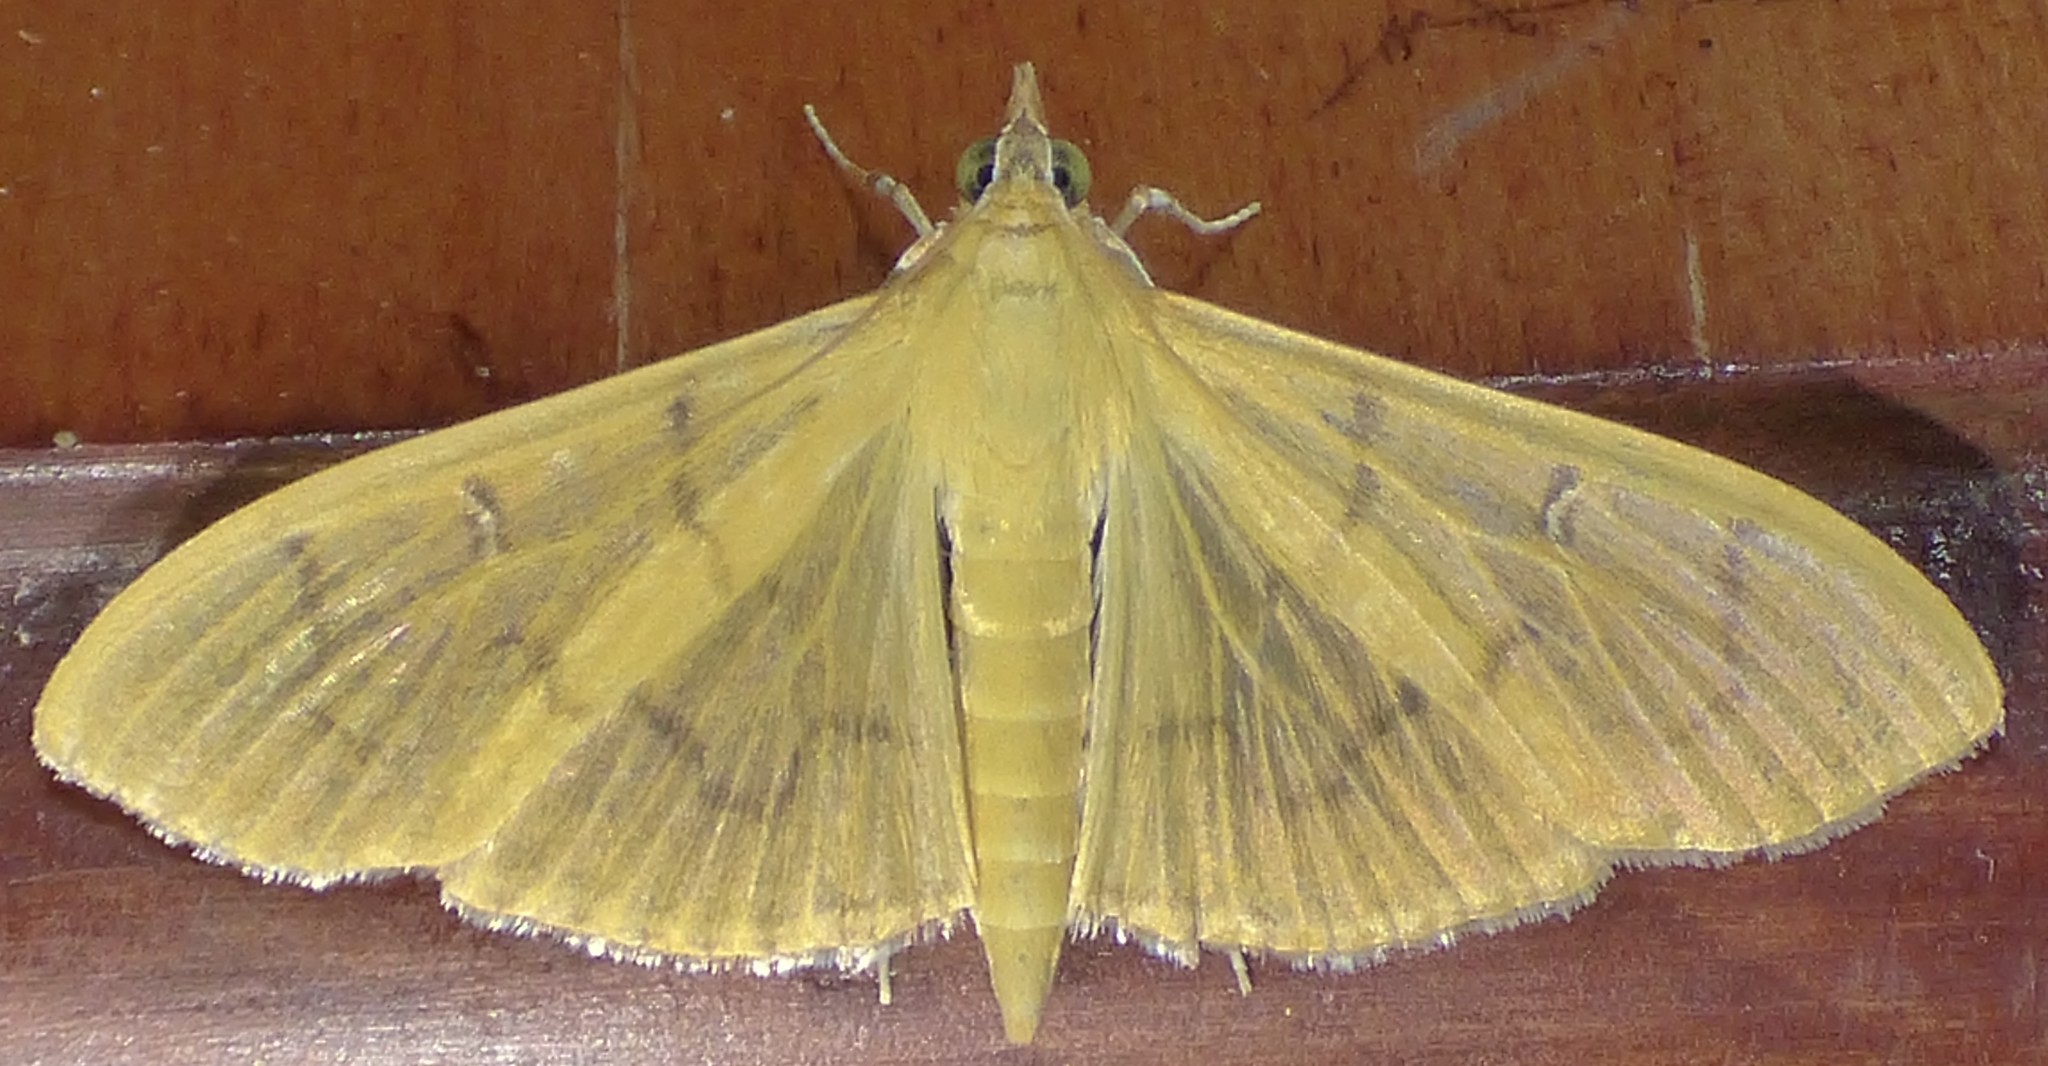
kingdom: Animalia
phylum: Arthropoda
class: Insecta
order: Lepidoptera
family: Crambidae
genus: Condylorrhiza
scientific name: Condylorrhiza vestigialis
